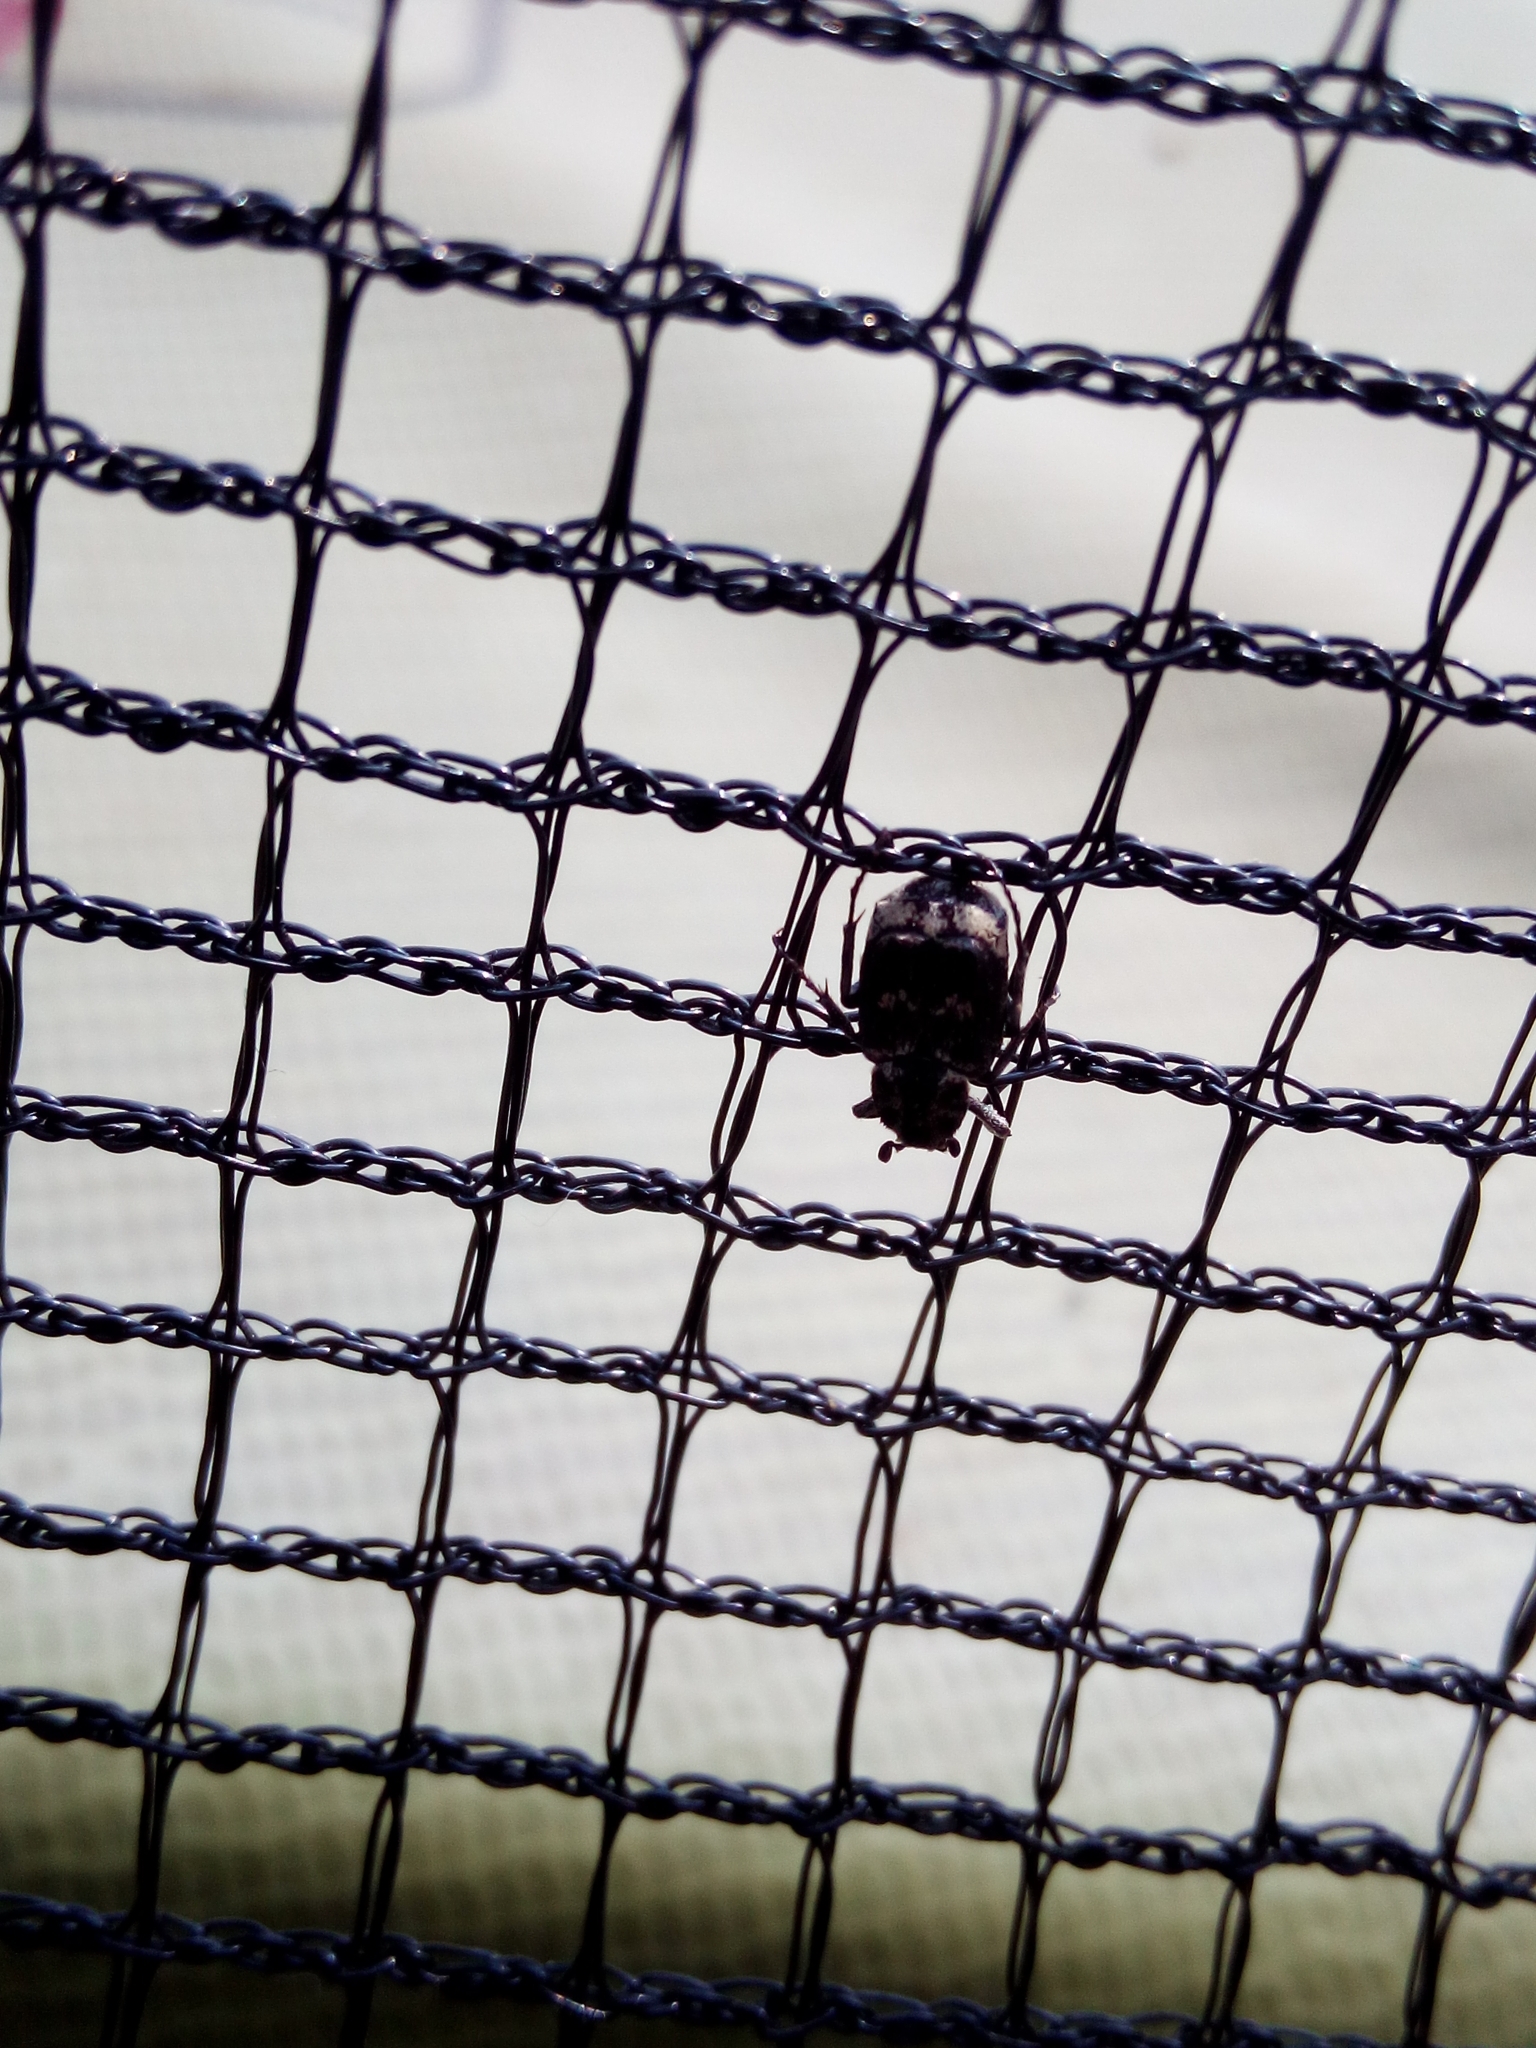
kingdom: Animalia
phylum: Arthropoda
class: Insecta
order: Coleoptera
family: Scarabaeidae
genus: Valgus
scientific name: Valgus hemipterus
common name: Bug flower chafer
